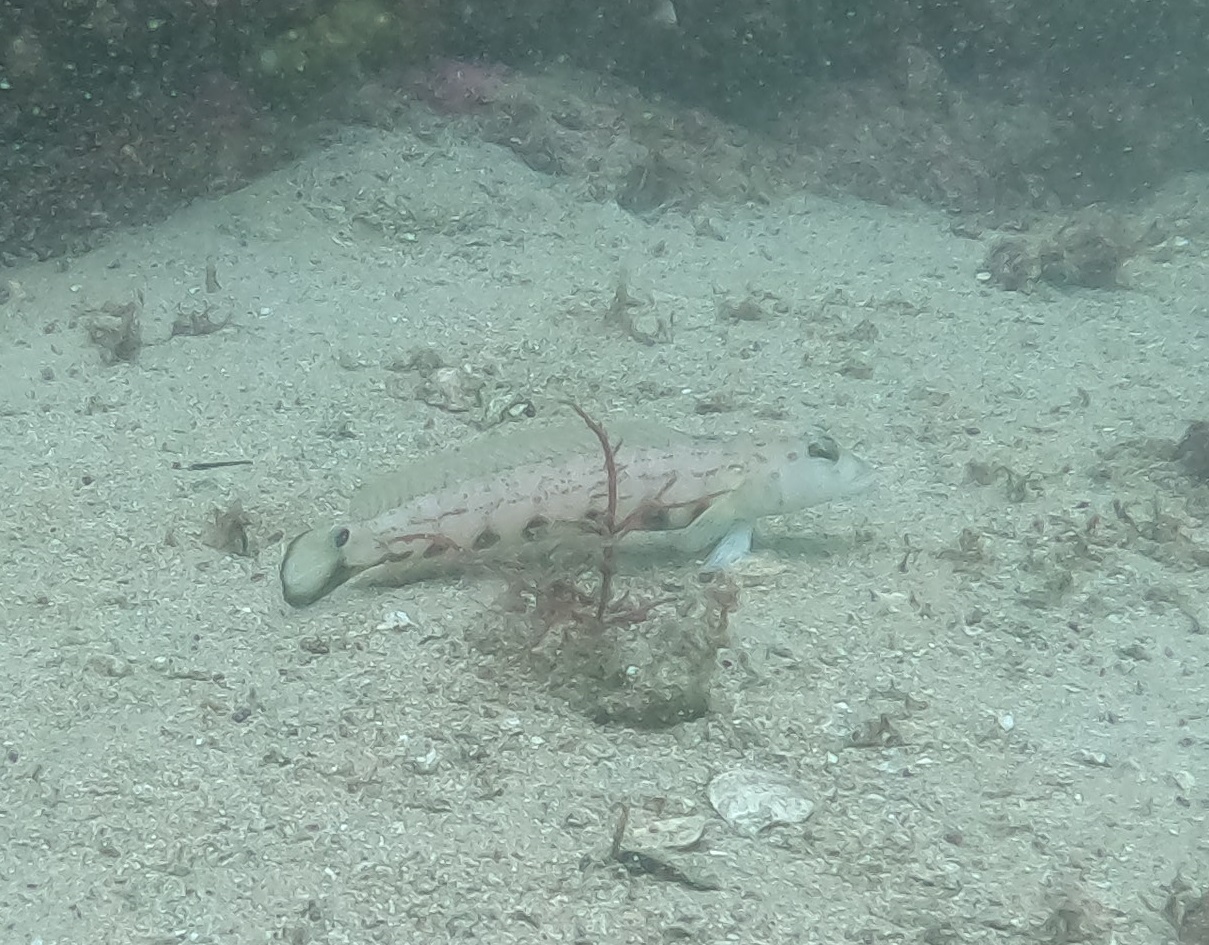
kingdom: Animalia
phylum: Chordata
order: Perciformes
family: Pinguipedidae
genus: Parapercis
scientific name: Parapercis ramsayi
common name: Ramsay's grubfish
